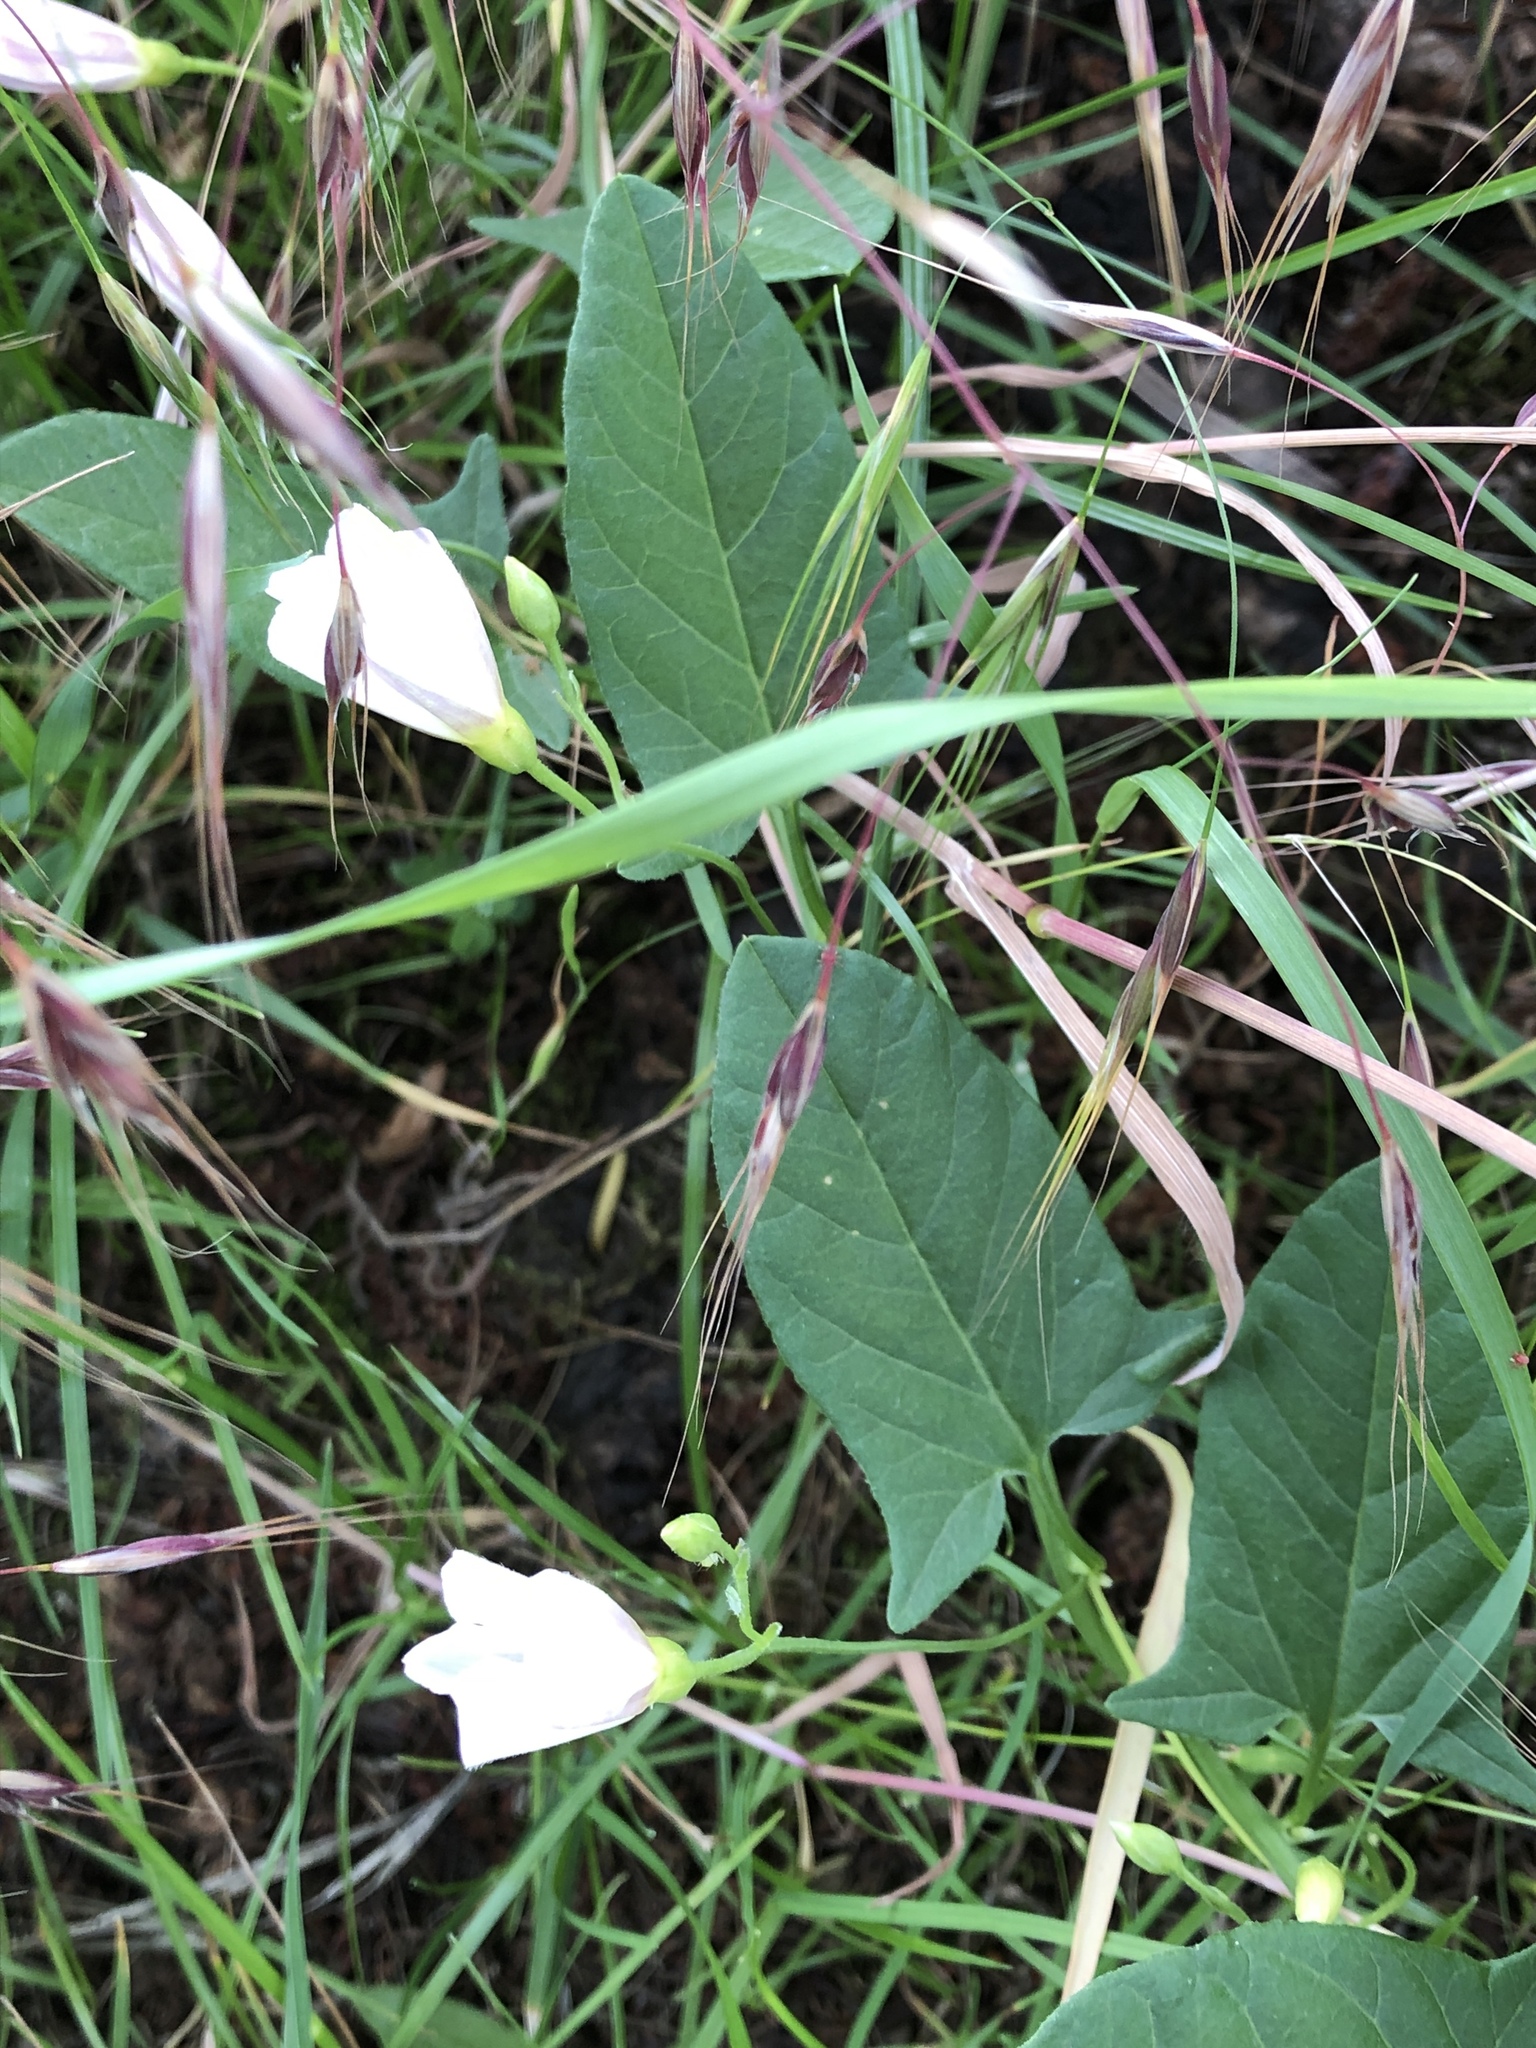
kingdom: Plantae
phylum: Tracheophyta
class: Magnoliopsida
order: Solanales
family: Convolvulaceae
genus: Convolvulus
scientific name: Convolvulus arvensis
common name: Field bindweed
